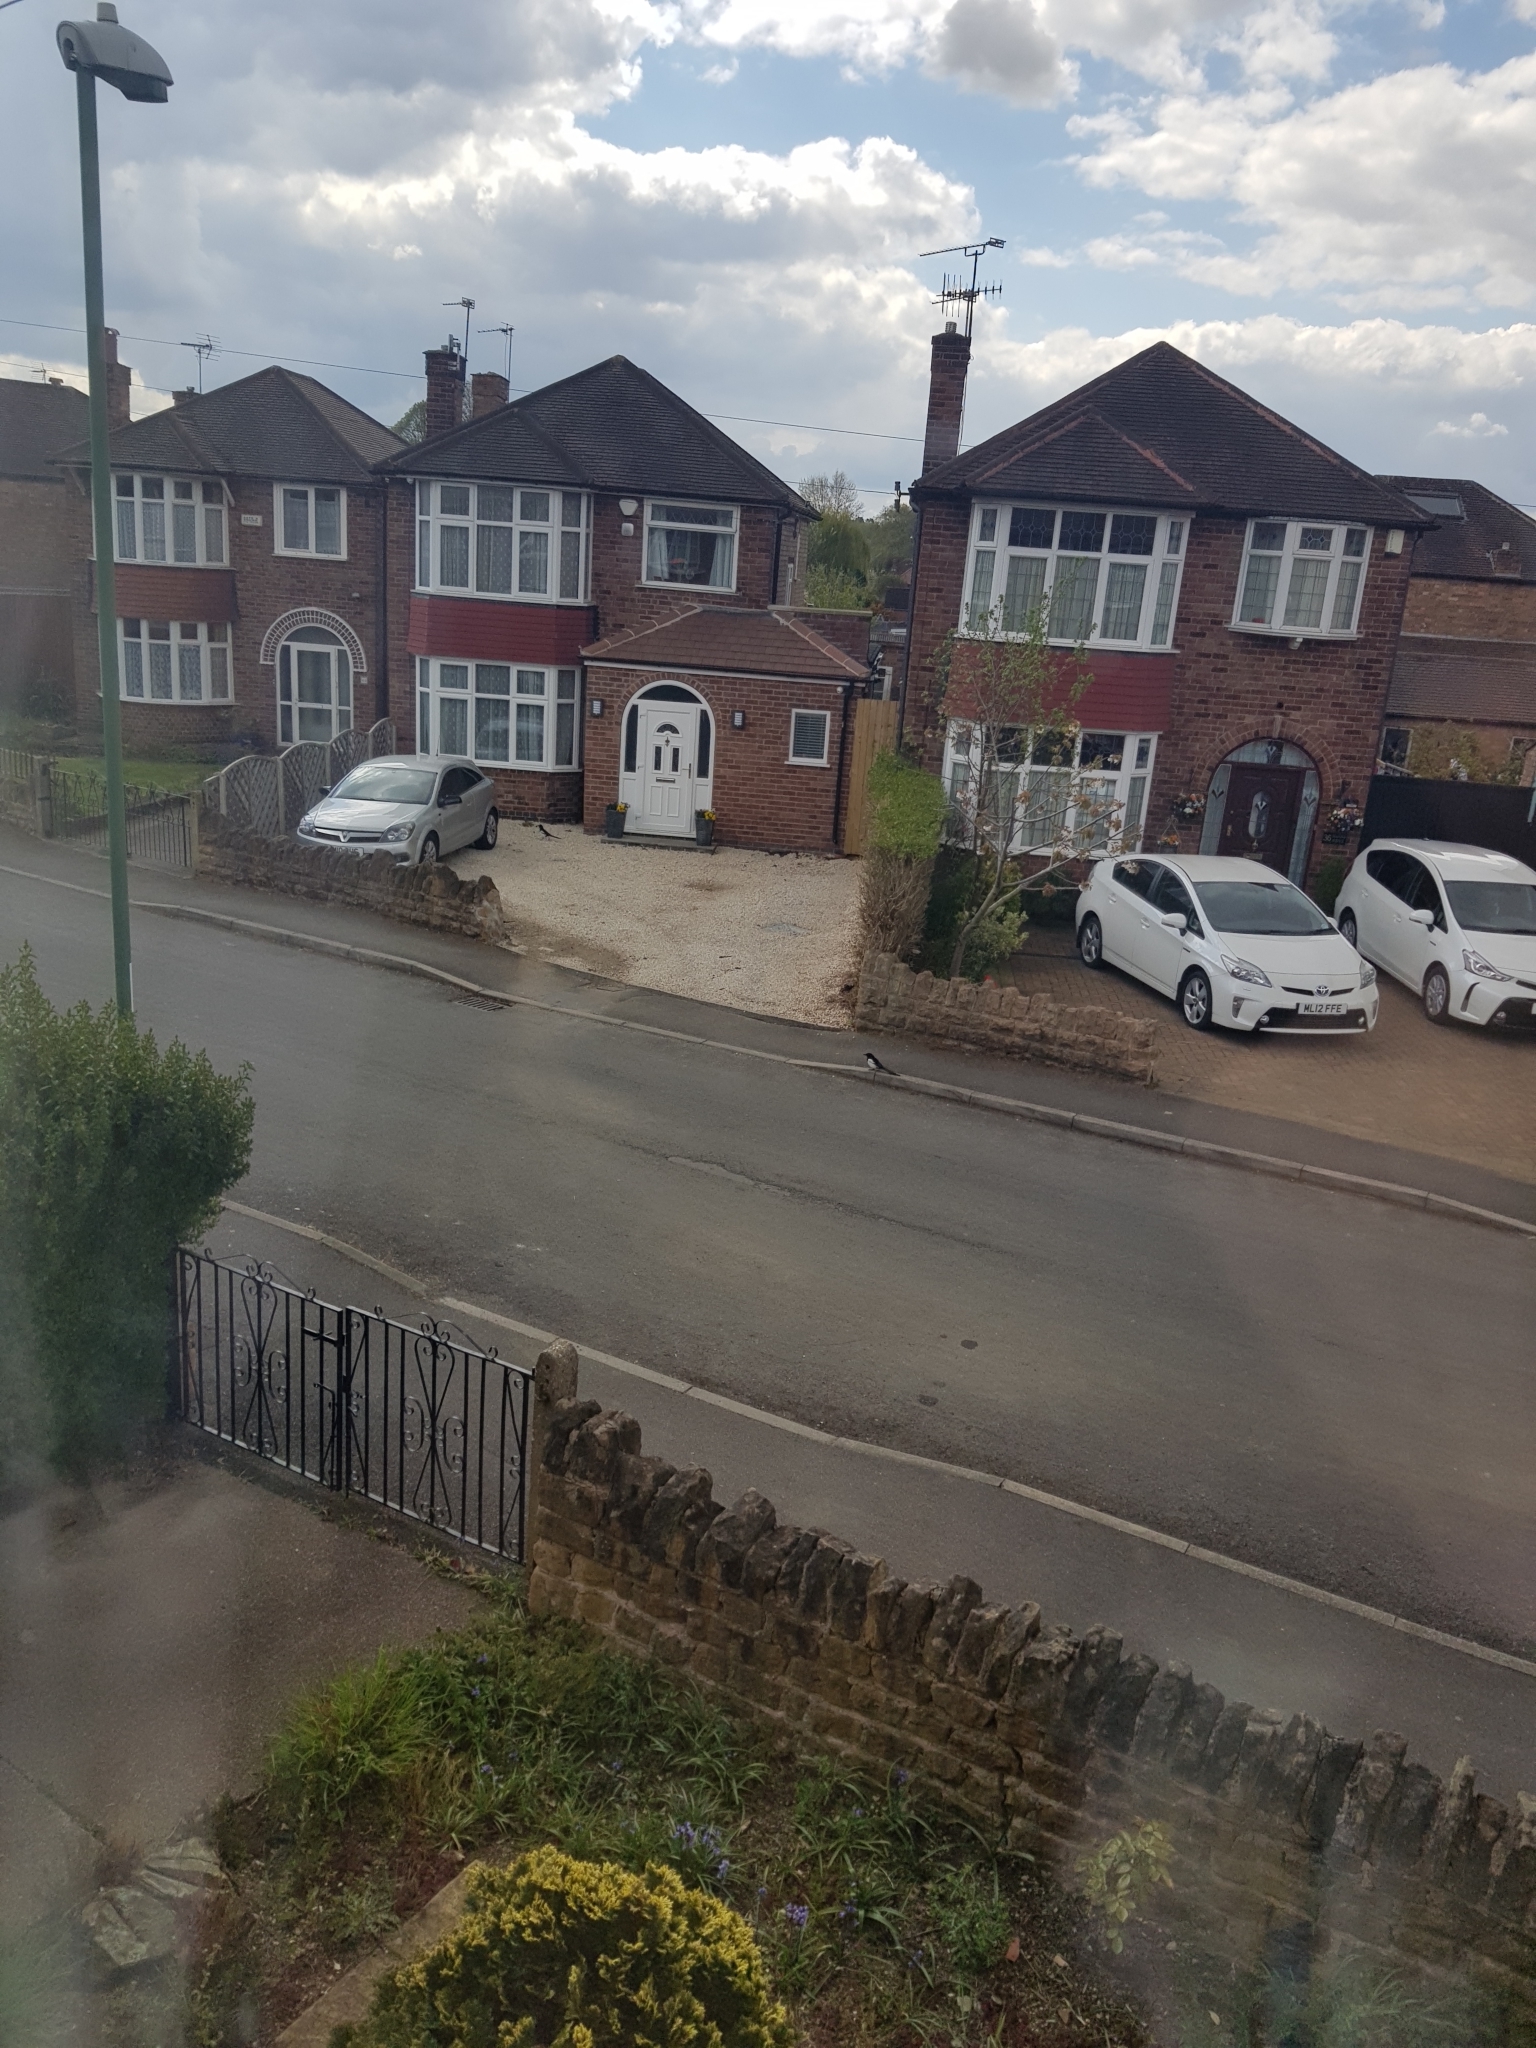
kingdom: Animalia
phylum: Chordata
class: Aves
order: Passeriformes
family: Corvidae
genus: Pica
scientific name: Pica pica
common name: Eurasian magpie
